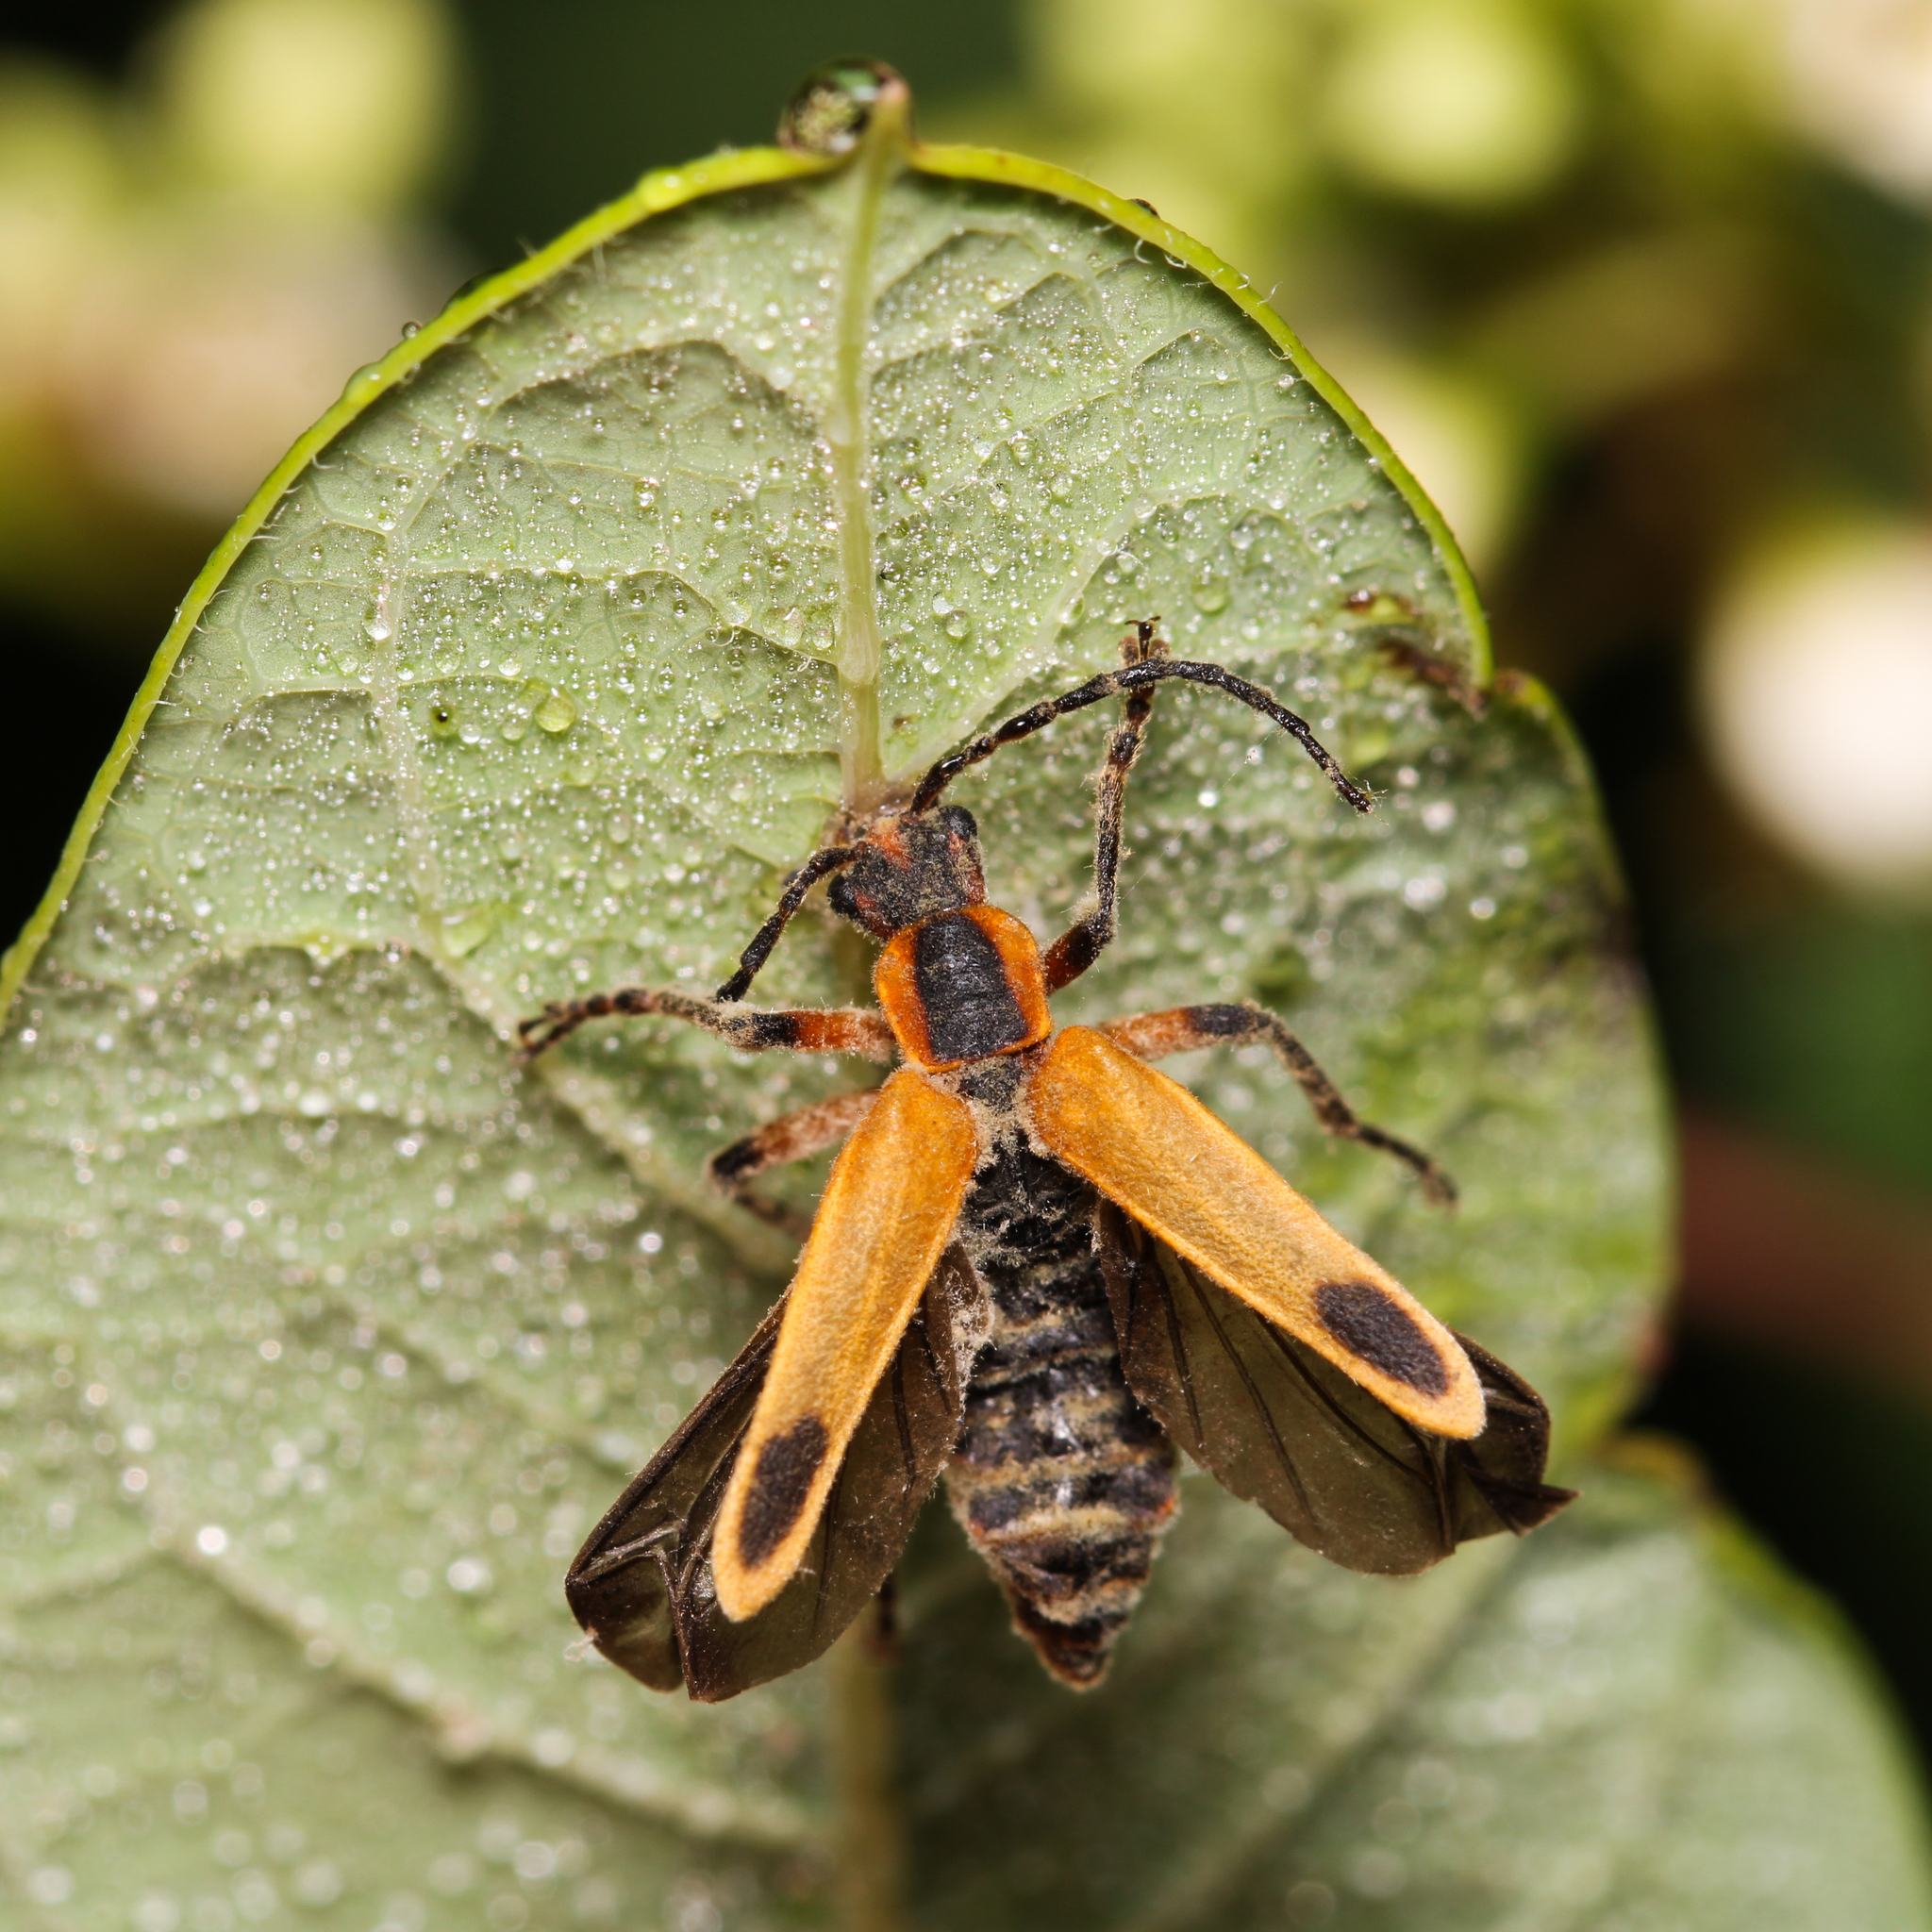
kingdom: Animalia
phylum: Arthropoda
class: Insecta
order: Coleoptera
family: Cantharidae
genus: Chauliognathus
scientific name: Chauliognathus marginatus
